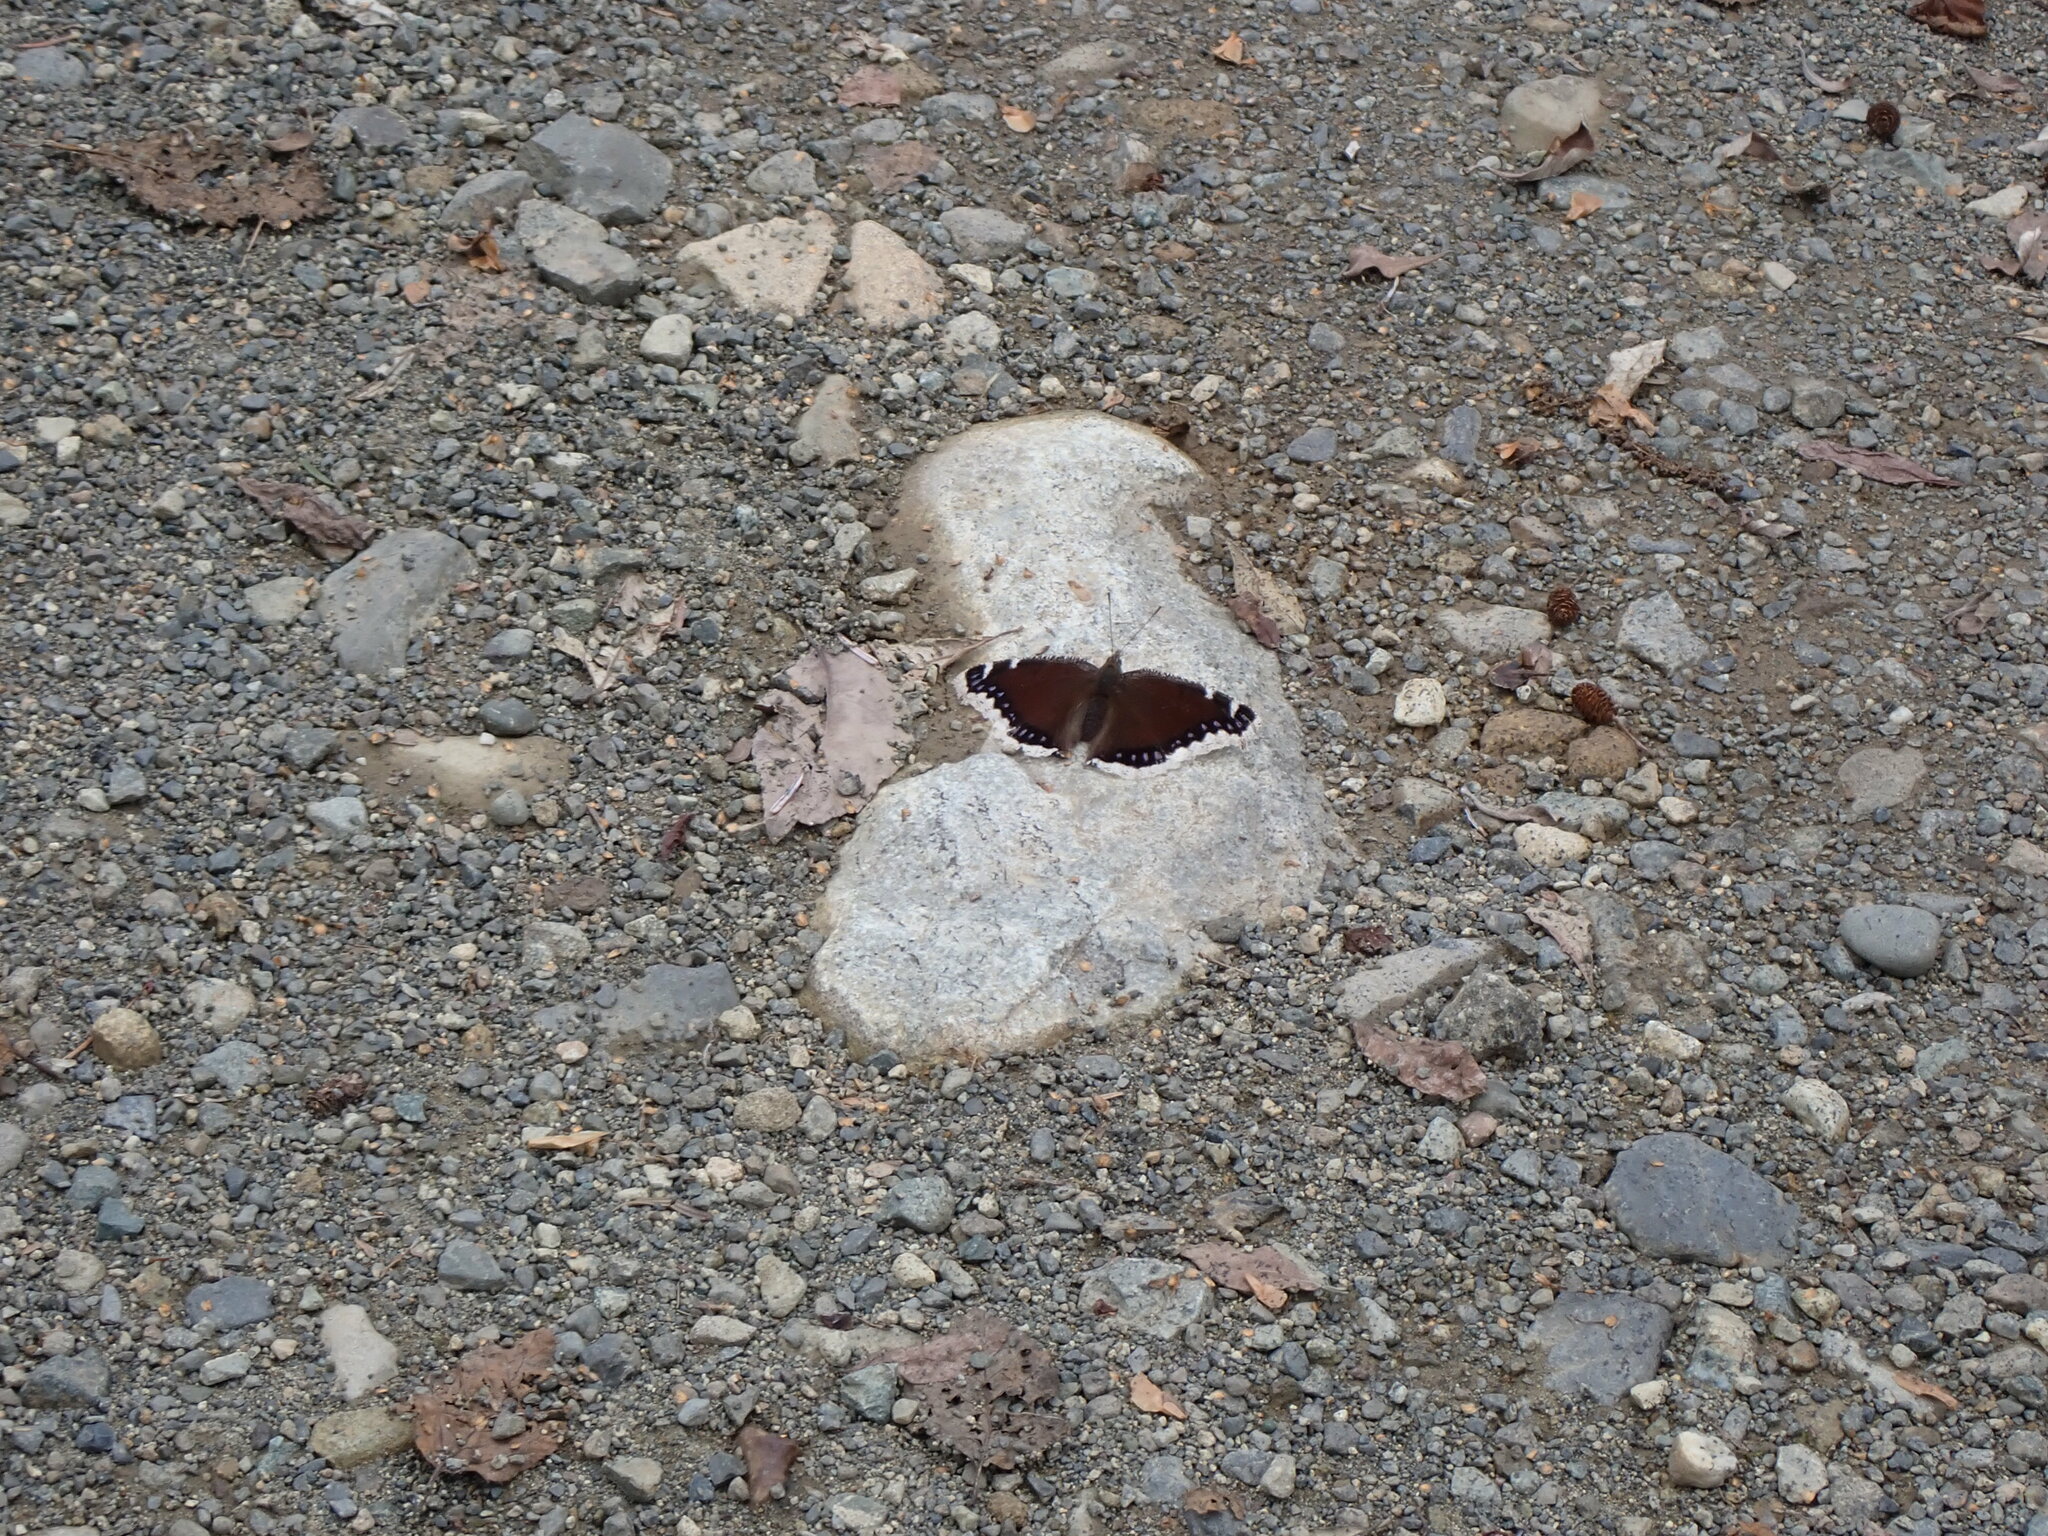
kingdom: Animalia
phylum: Arthropoda
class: Insecta
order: Lepidoptera
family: Nymphalidae
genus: Nymphalis
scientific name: Nymphalis antiopa
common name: Camberwell beauty
